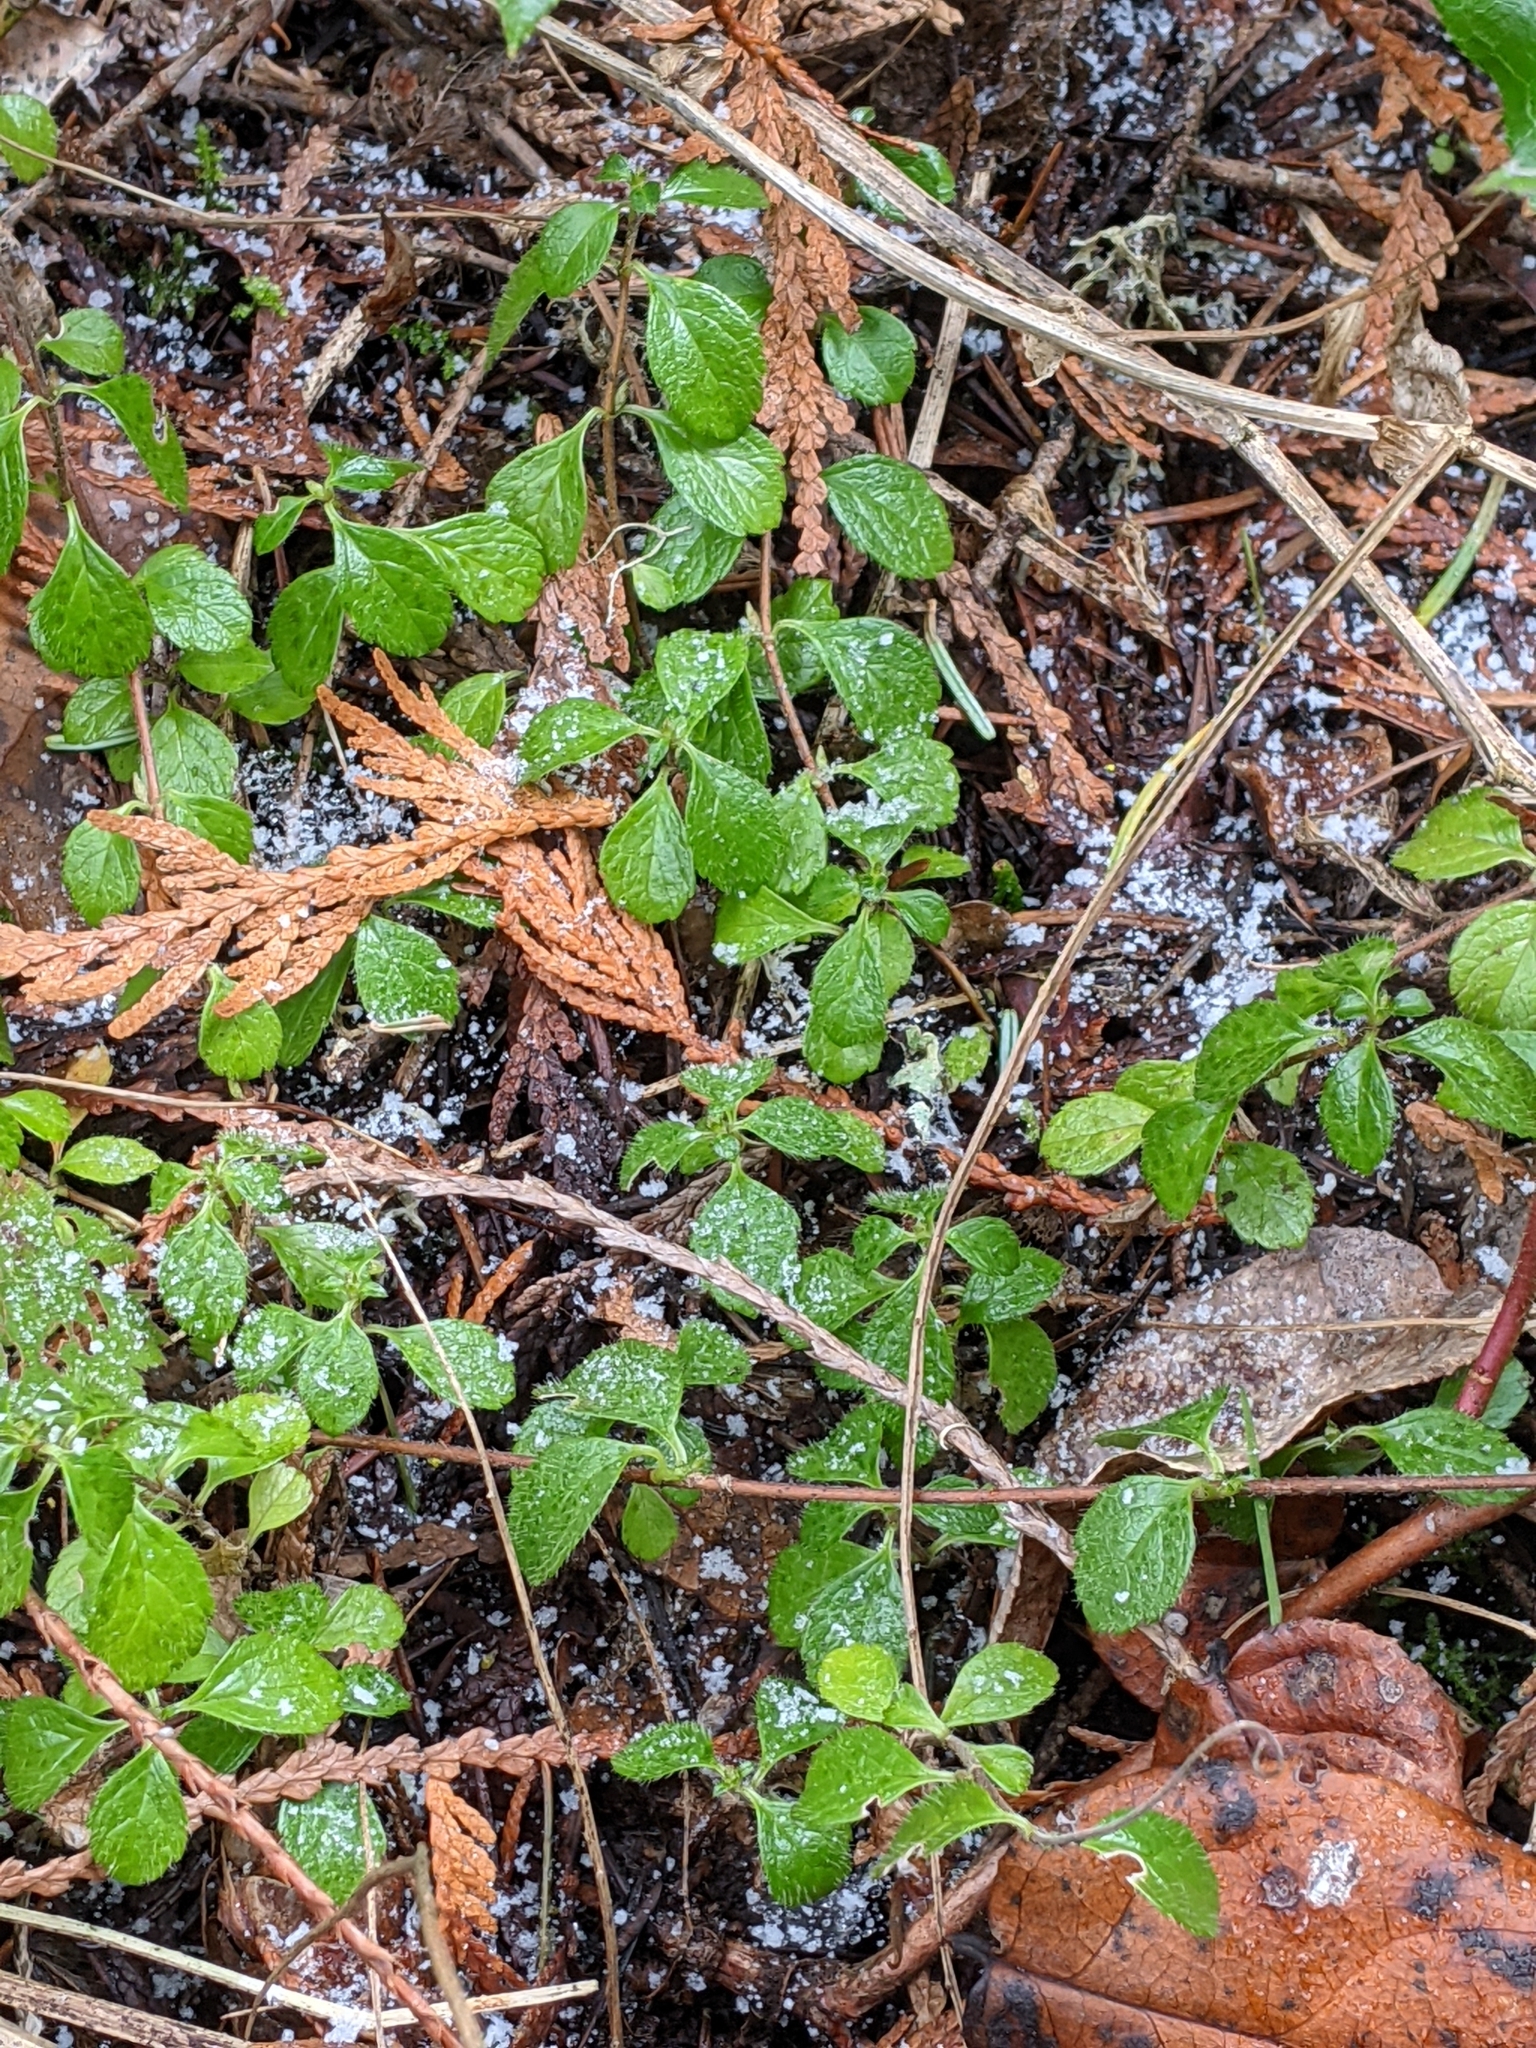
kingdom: Plantae
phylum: Tracheophyta
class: Magnoliopsida
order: Dipsacales
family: Caprifoliaceae
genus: Linnaea
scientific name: Linnaea borealis
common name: Twinflower
